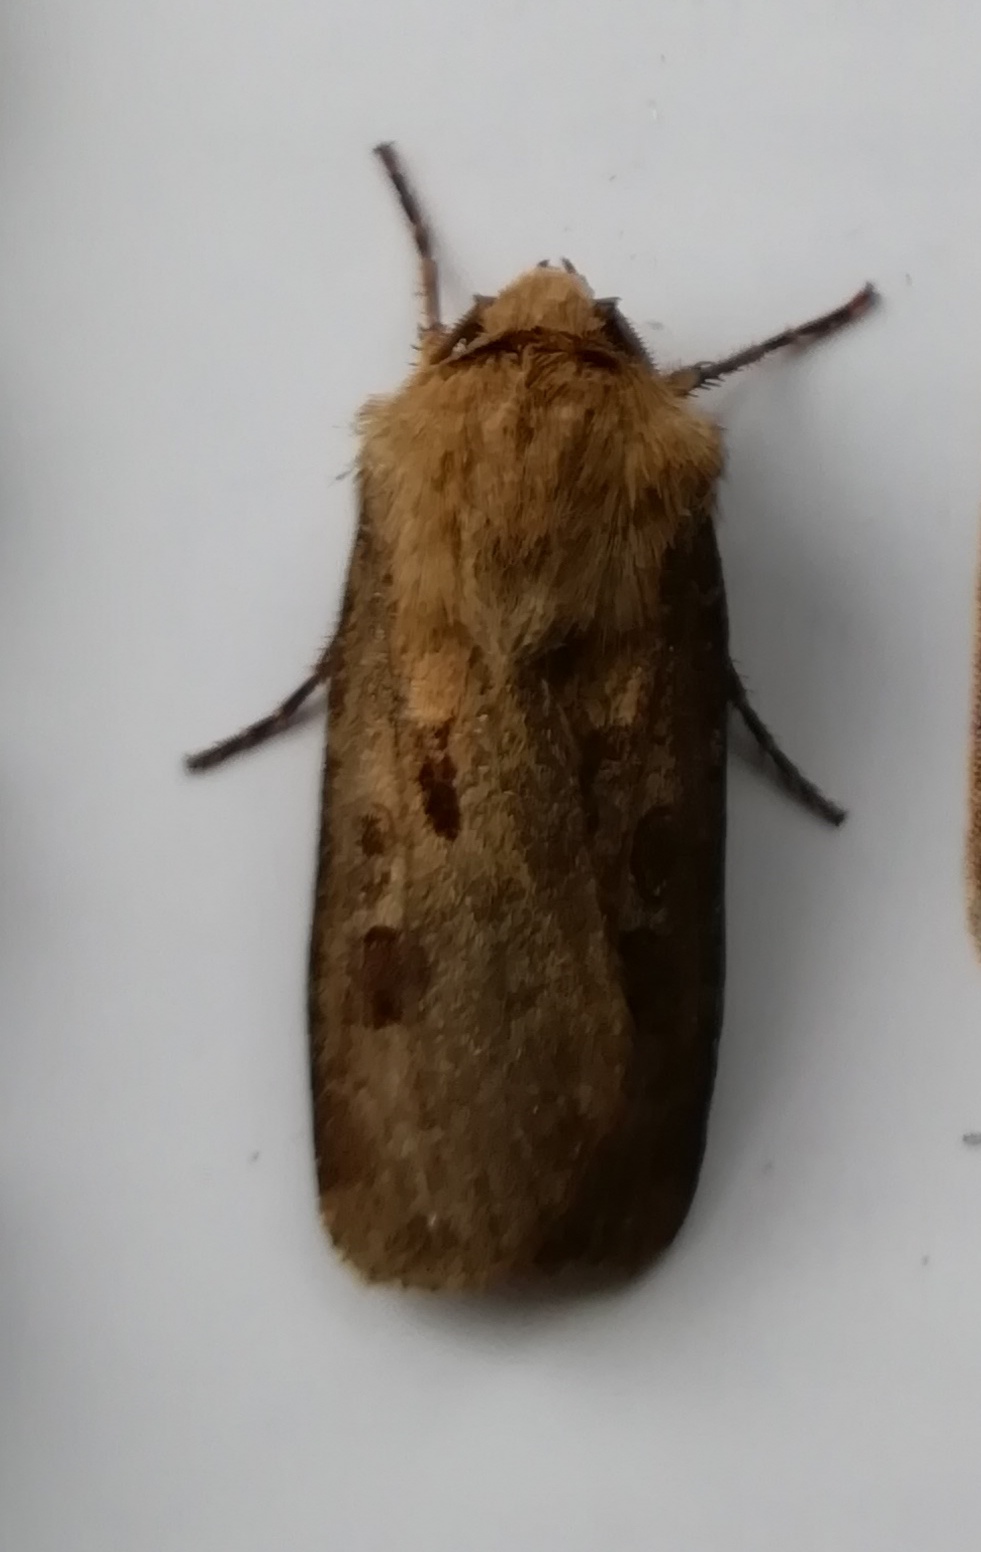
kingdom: Animalia
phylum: Arthropoda
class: Insecta
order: Lepidoptera
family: Noctuidae
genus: Agrotis
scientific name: Agrotis exclamationis
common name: Heart and dart
